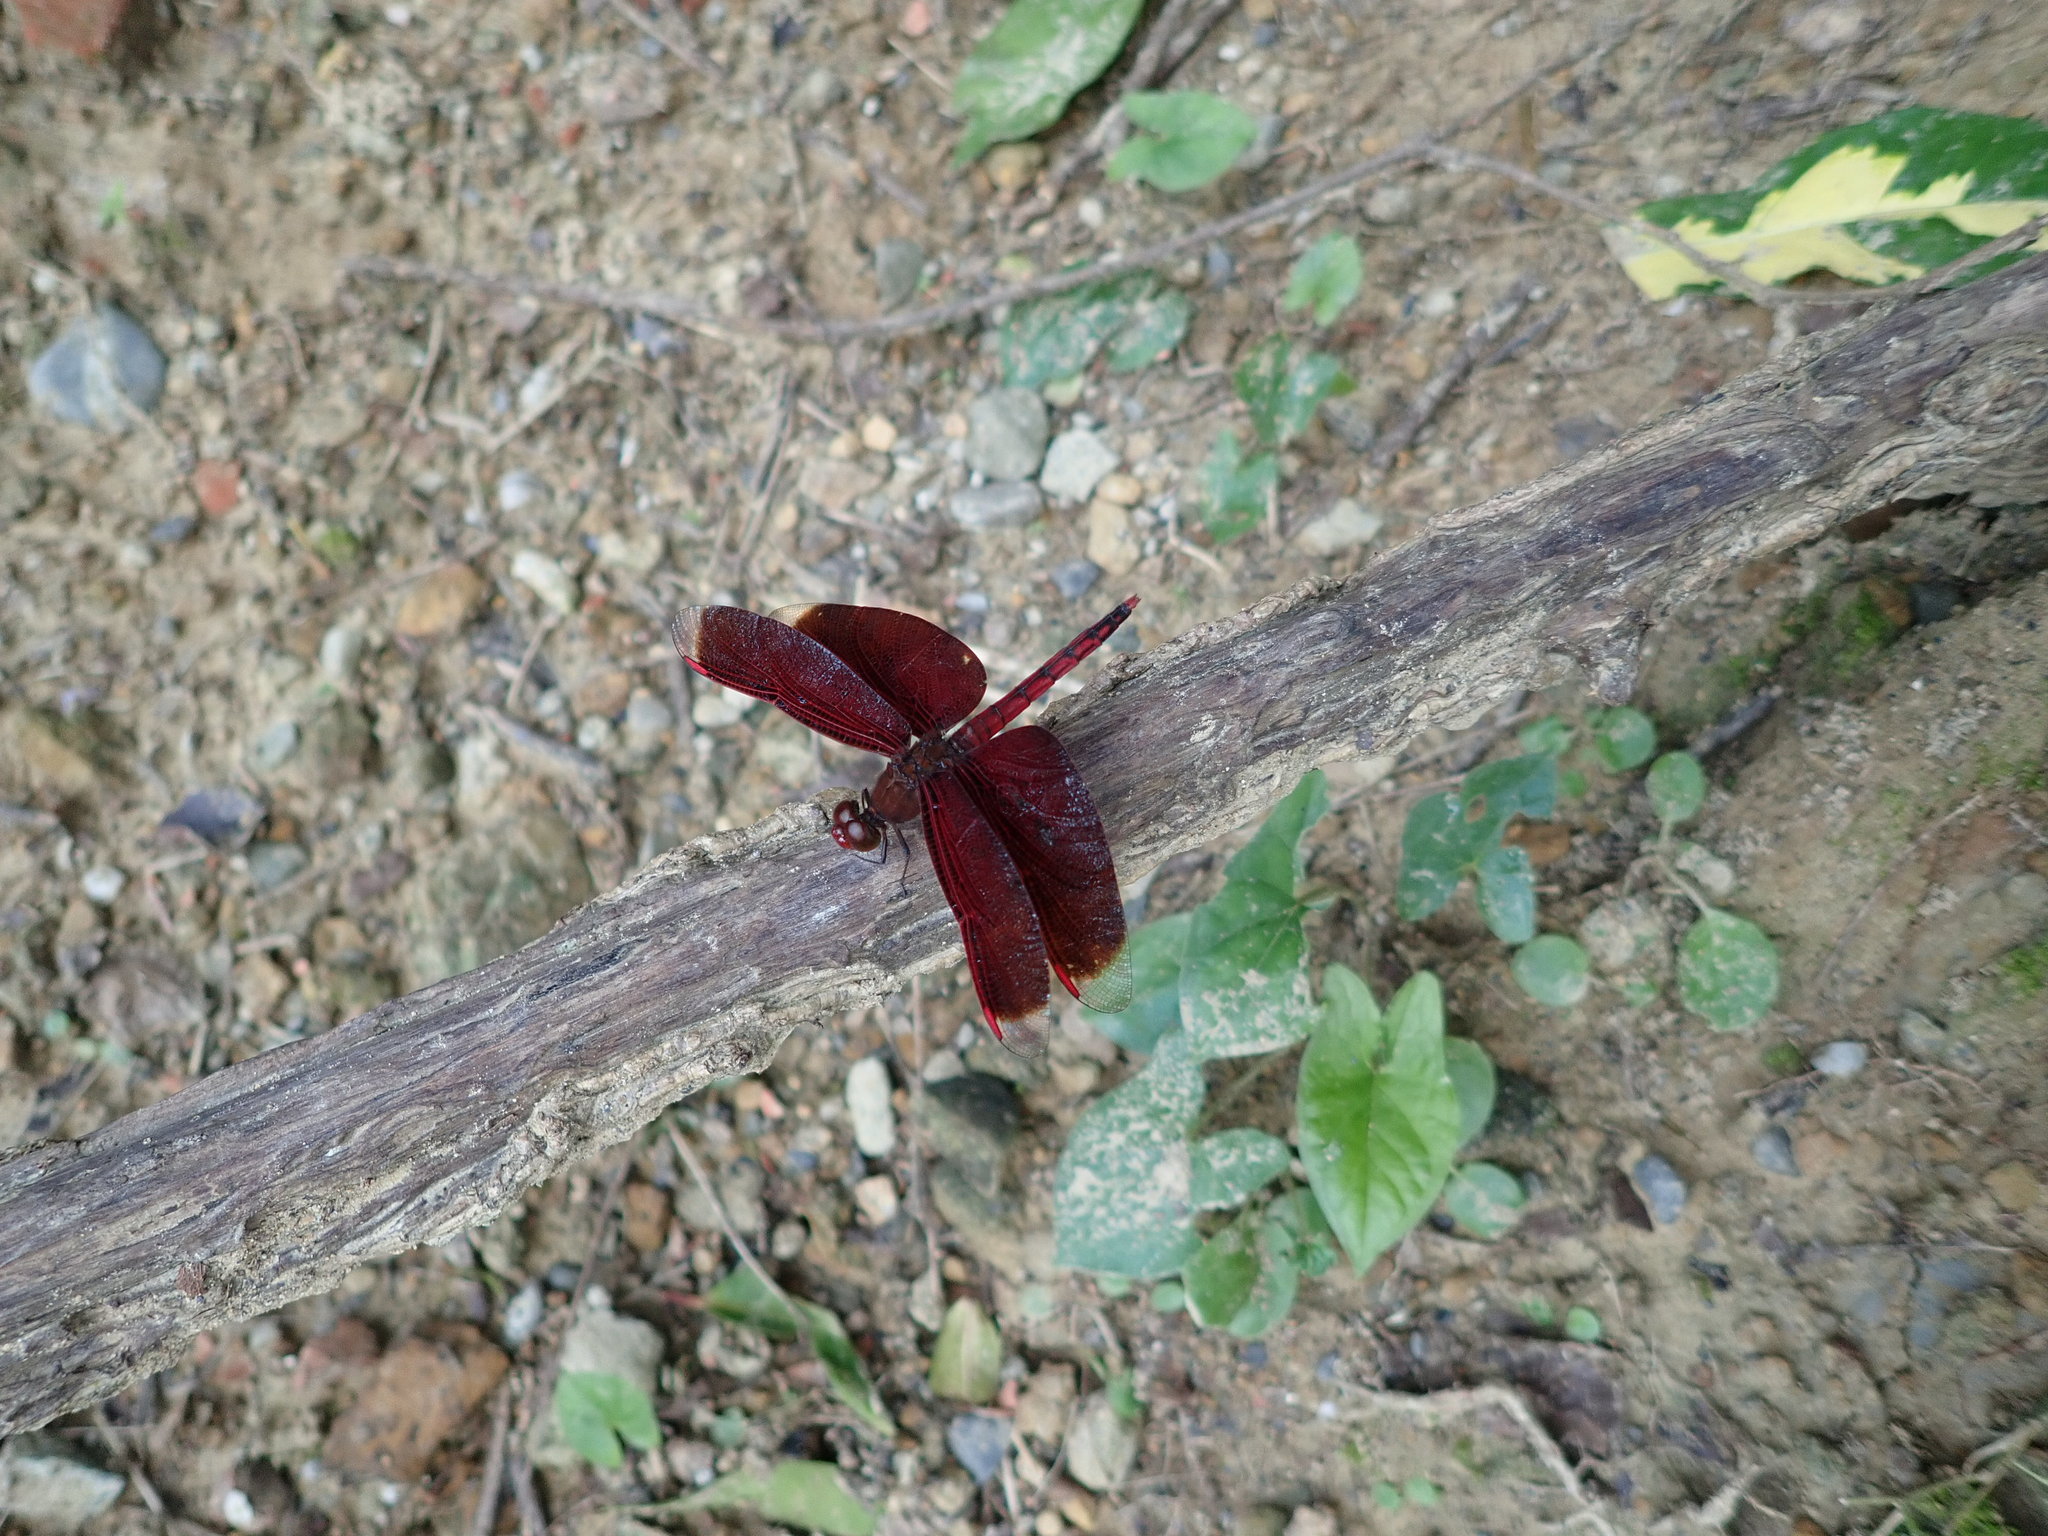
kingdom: Animalia
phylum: Arthropoda
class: Insecta
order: Odonata
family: Libellulidae
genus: Neurothemis
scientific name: Neurothemis taiwanensis
